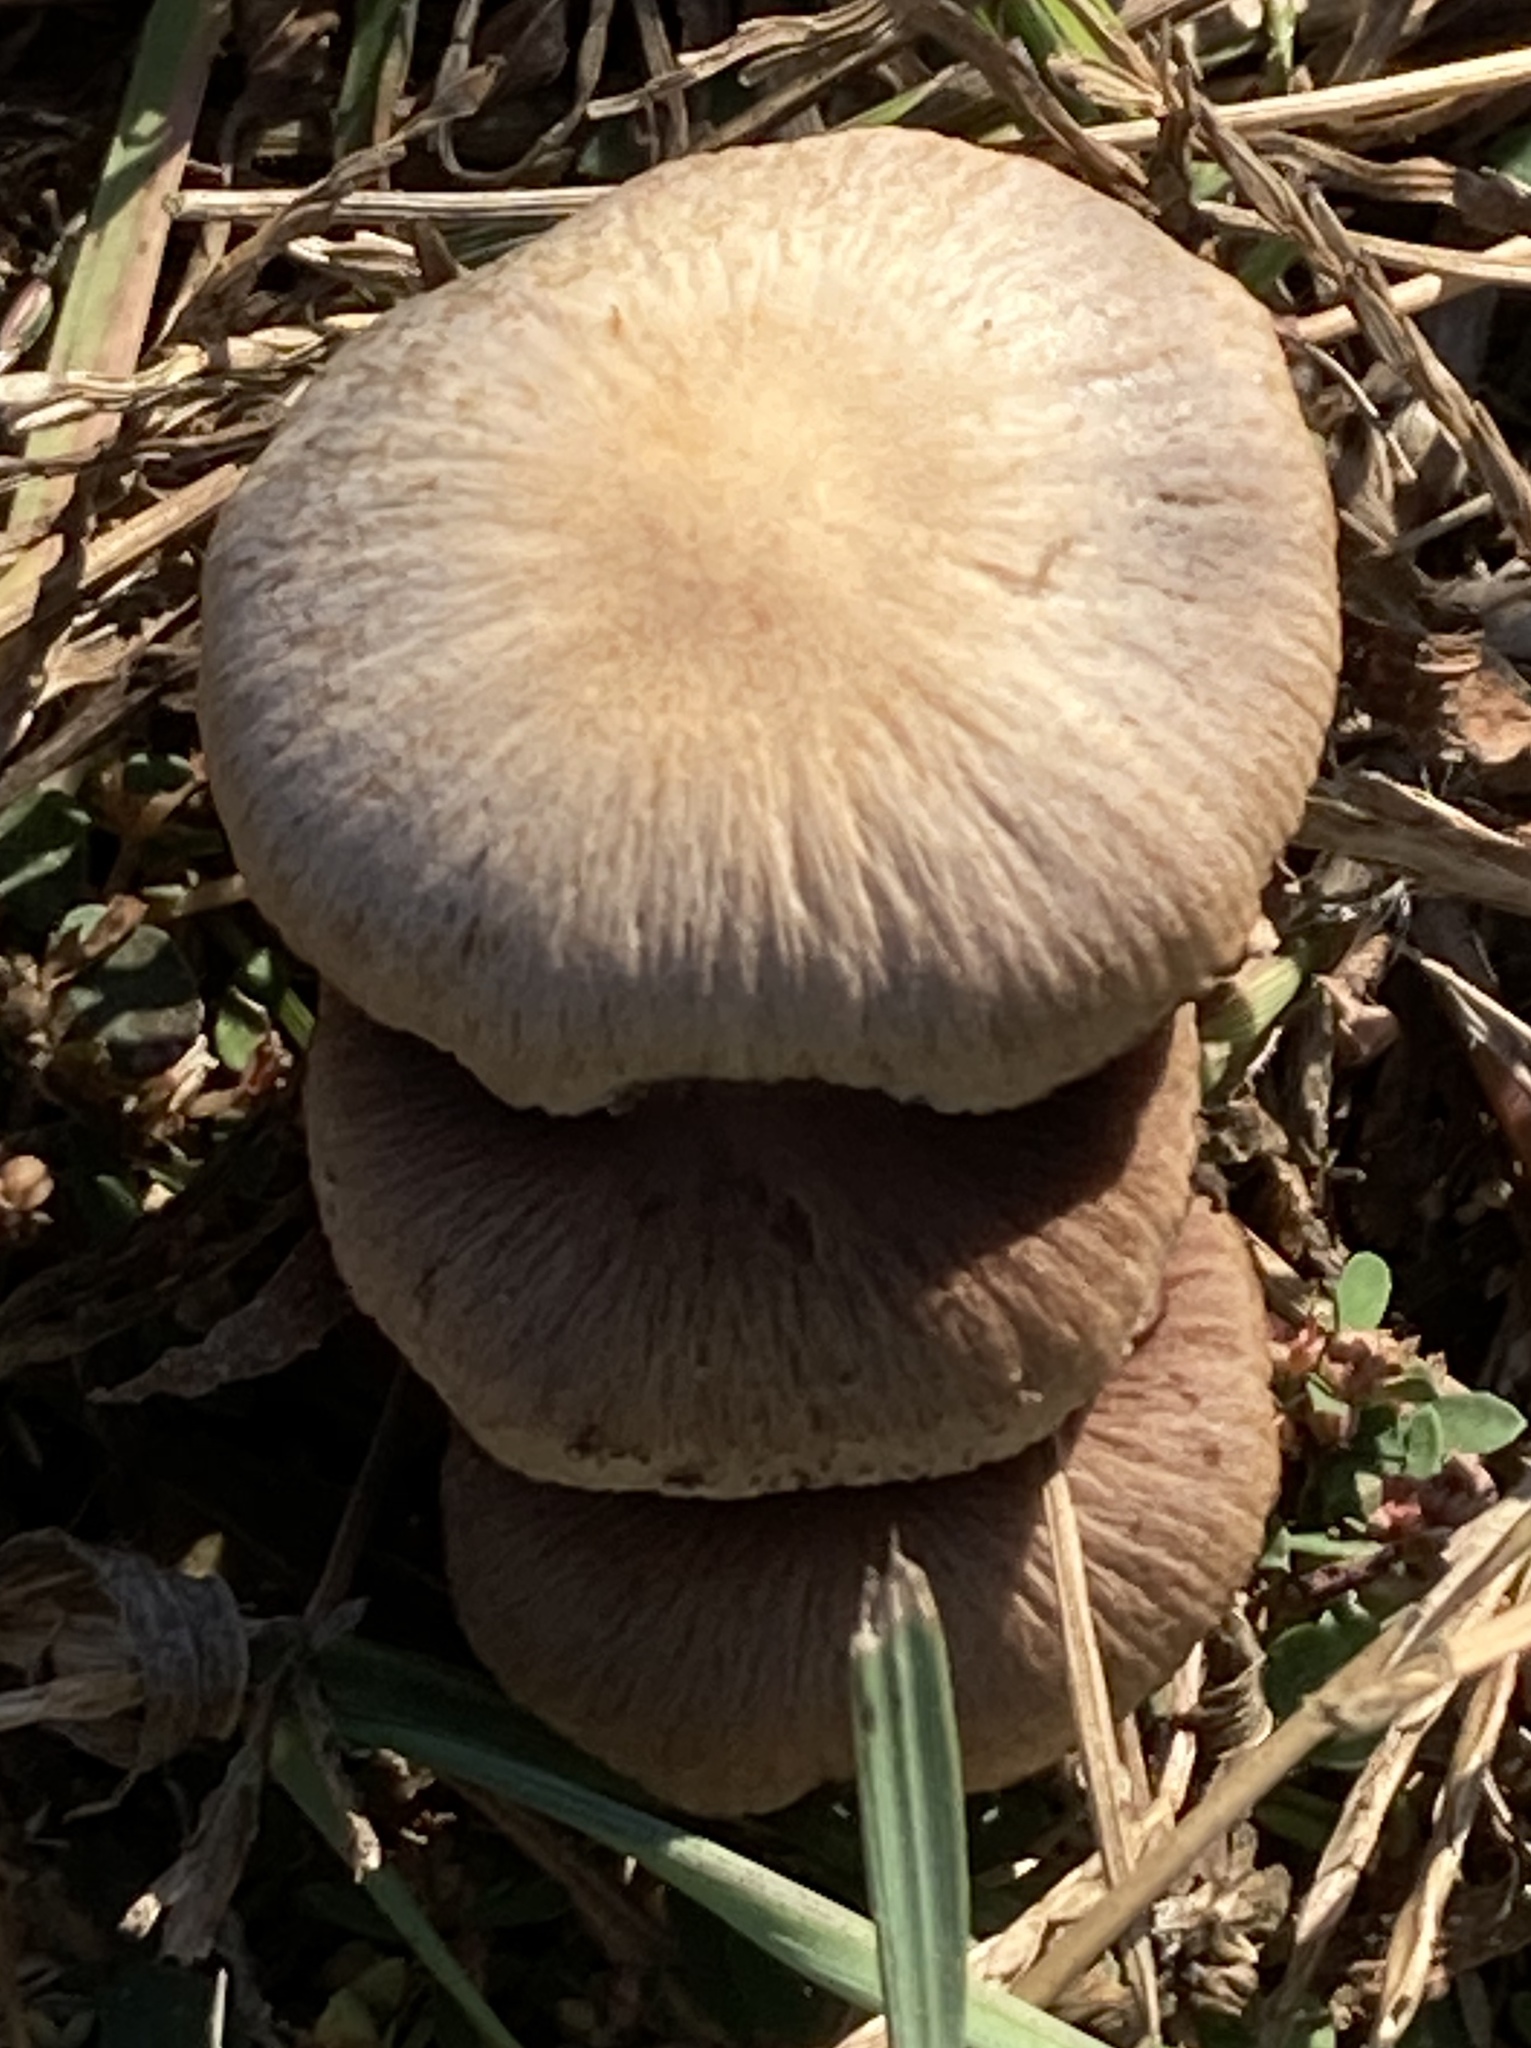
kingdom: Fungi
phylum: Basidiomycota
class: Agaricomycetes
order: Agaricales
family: Cortinariaceae
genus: Cortinarius
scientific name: Cortinarius caperatus
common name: The gypsy
